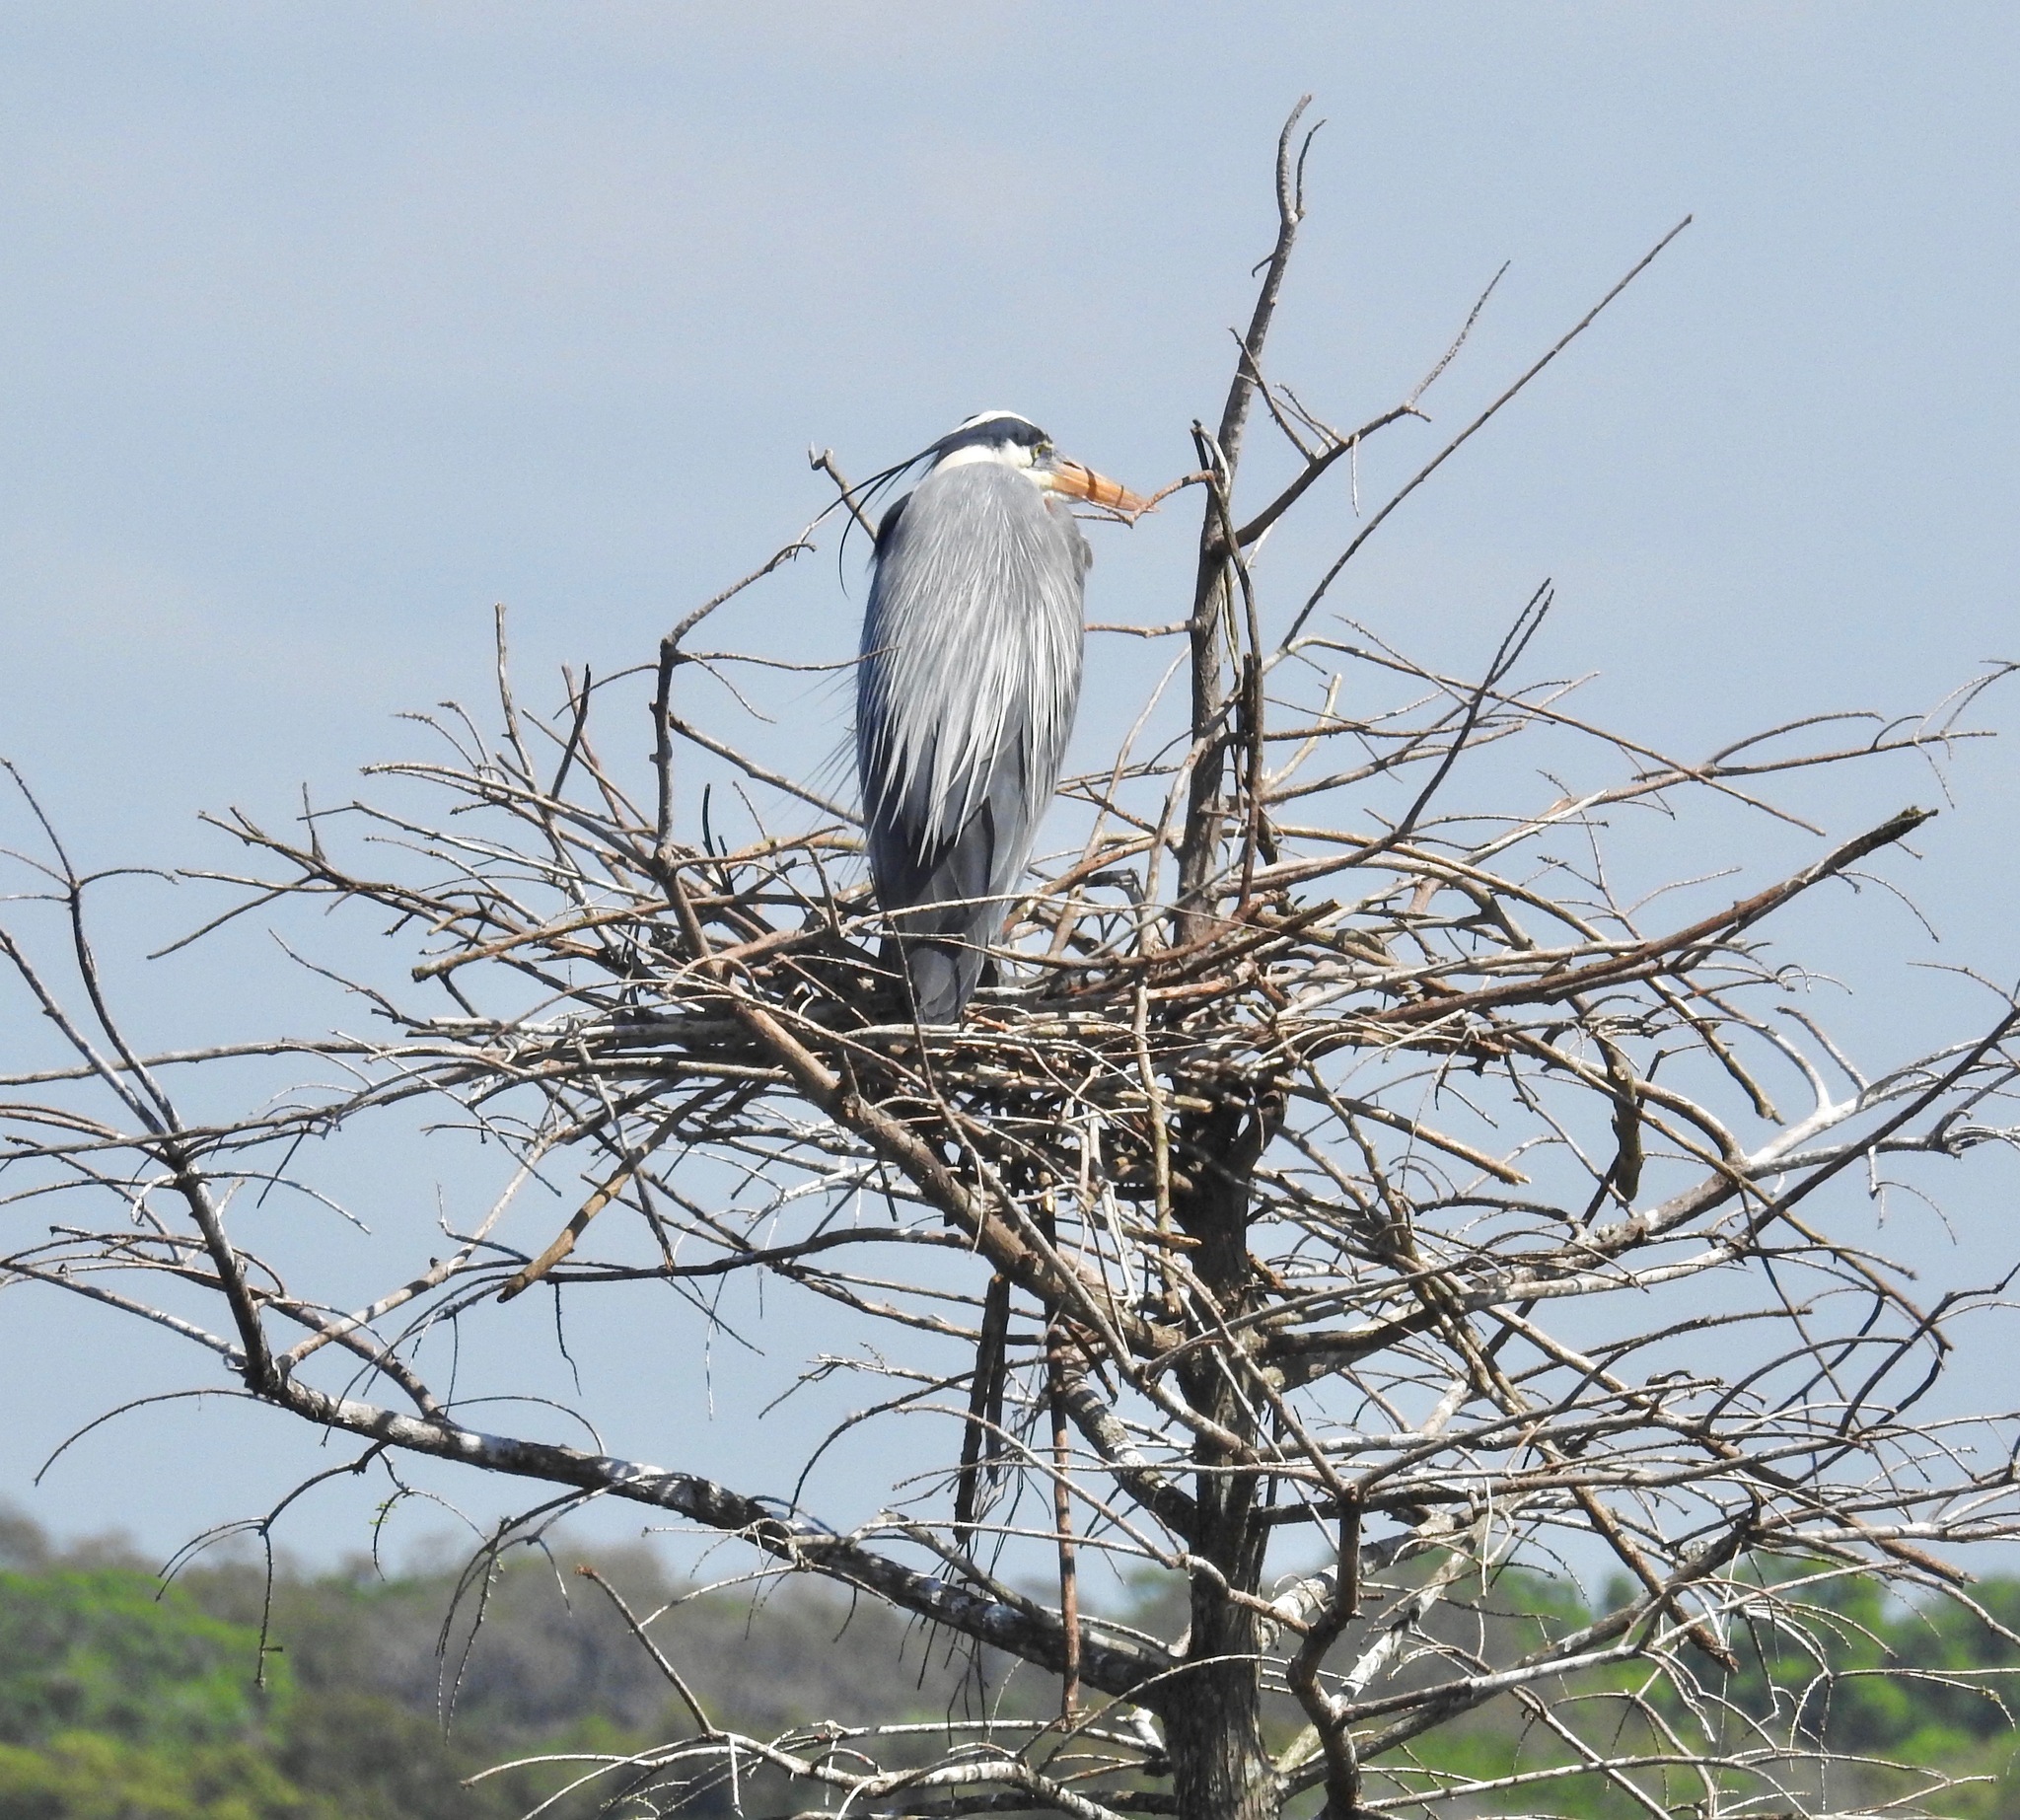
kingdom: Animalia
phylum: Chordata
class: Aves
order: Pelecaniformes
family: Ardeidae
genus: Ardea
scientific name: Ardea herodias
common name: Great blue heron
